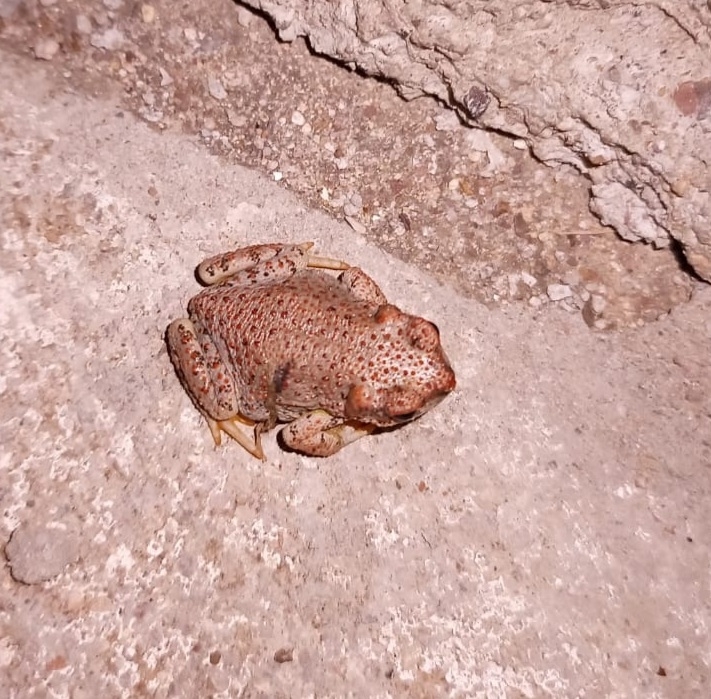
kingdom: Animalia
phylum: Chordata
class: Amphibia
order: Anura
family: Bufonidae
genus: Anaxyrus
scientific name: Anaxyrus punctatus
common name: Red-spotted toad
